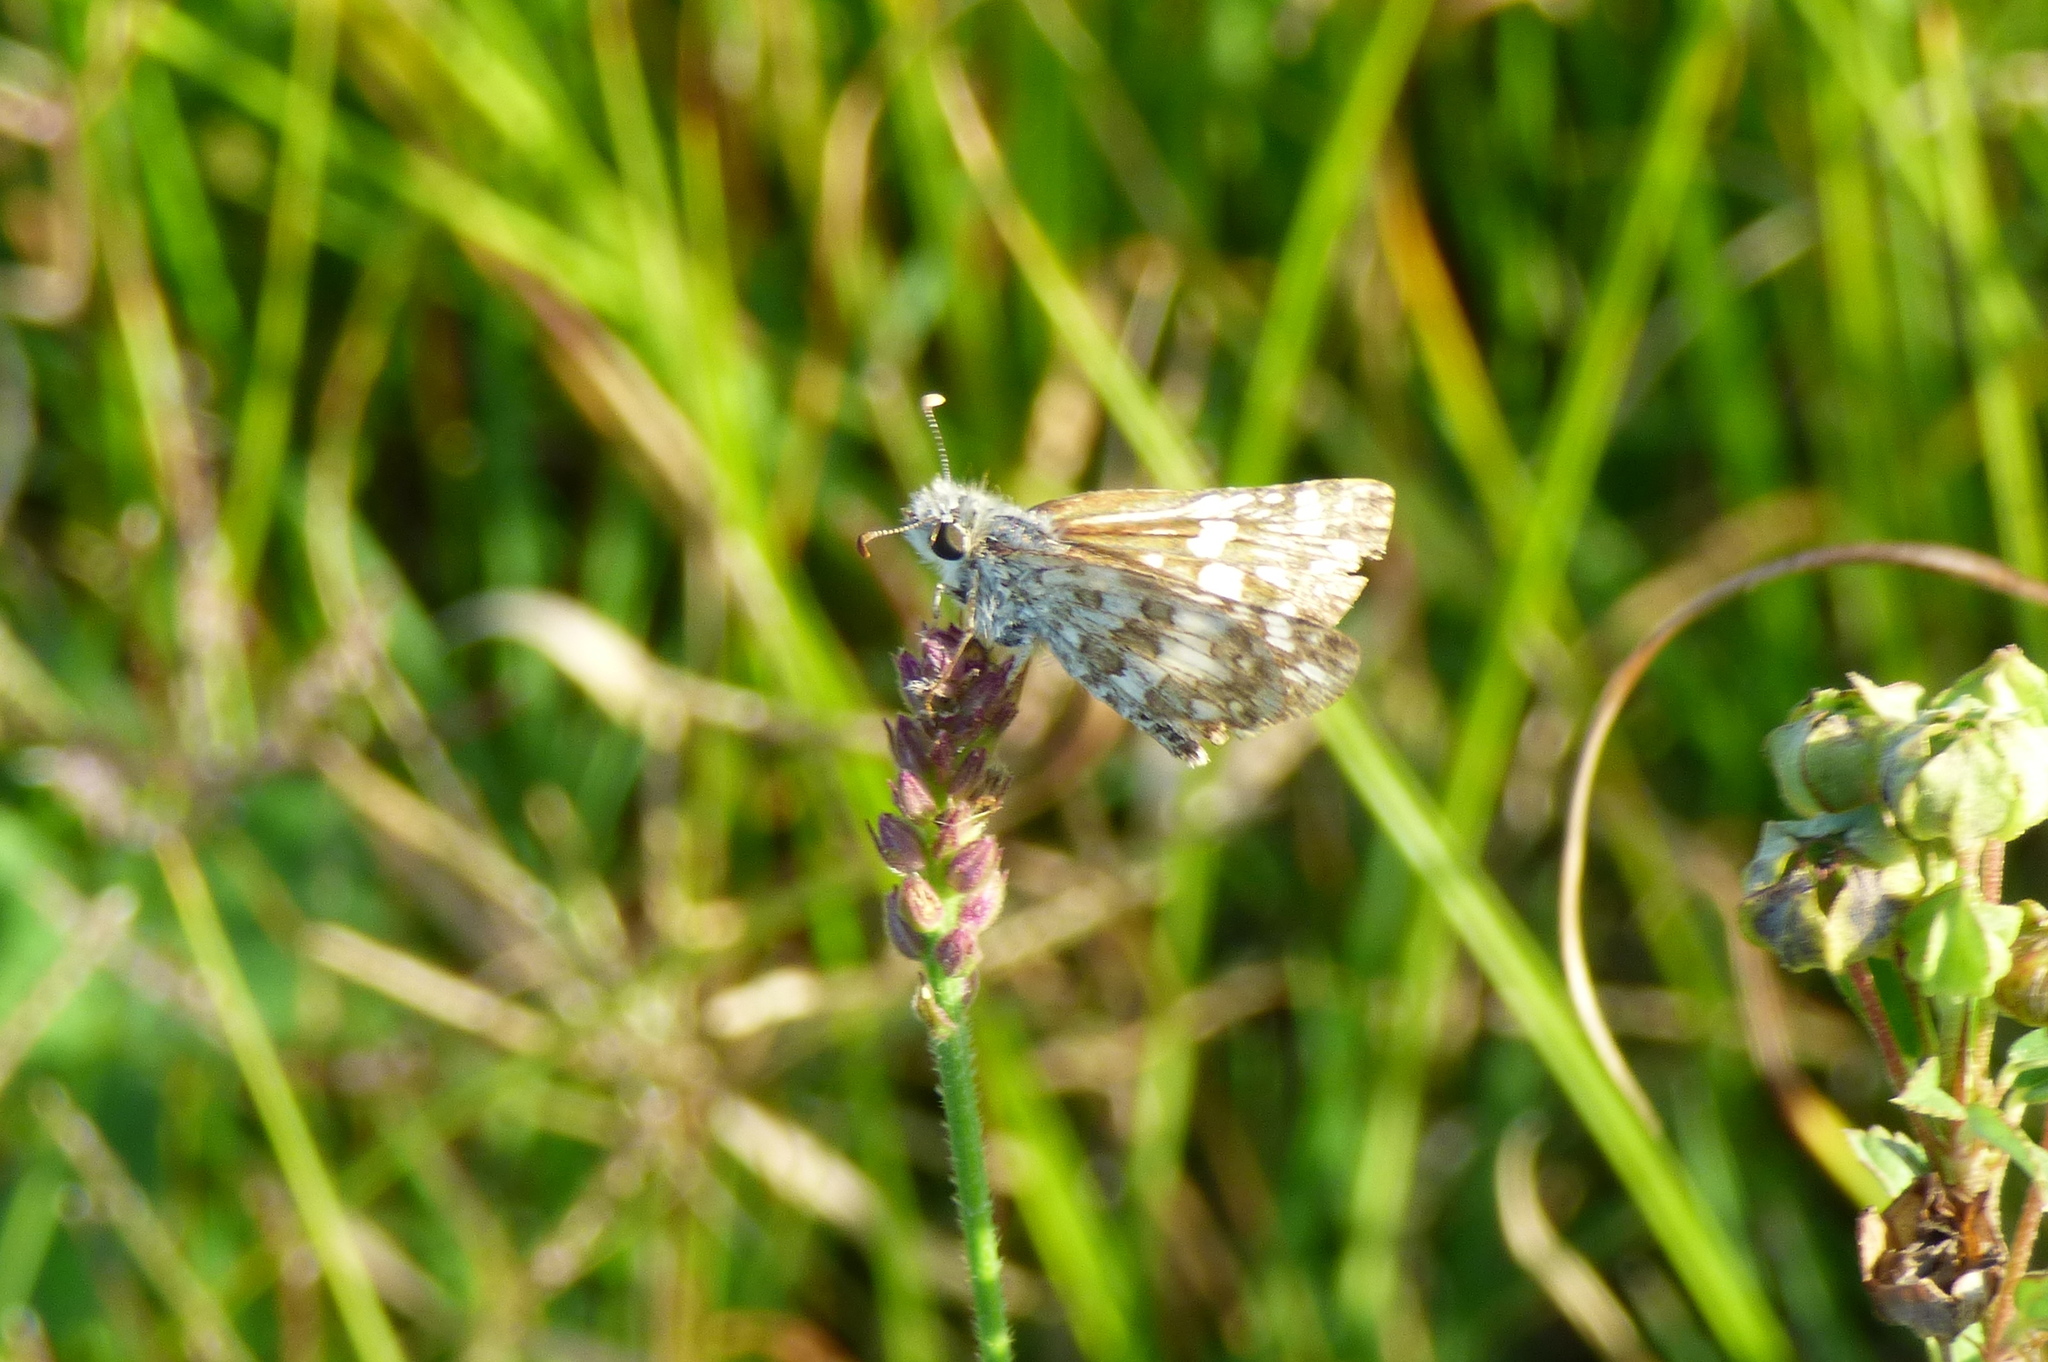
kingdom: Animalia
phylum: Arthropoda
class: Insecta
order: Lepidoptera
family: Hesperiidae
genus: Burnsius
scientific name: Burnsius orcynoides
